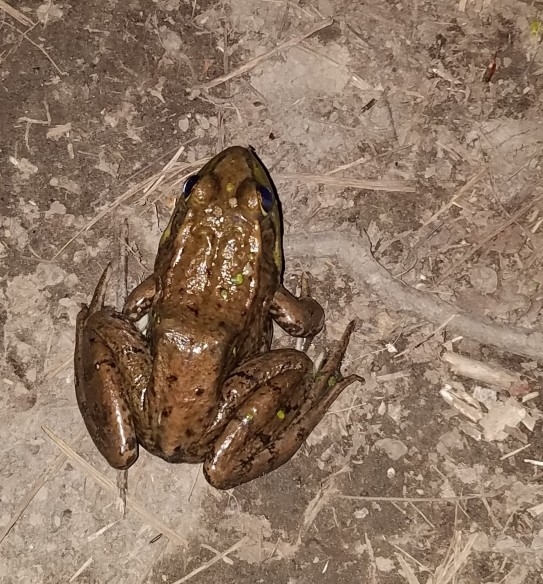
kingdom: Animalia
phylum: Chordata
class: Amphibia
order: Anura
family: Ranidae
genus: Lithobates
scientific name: Lithobates clamitans
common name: Green frog
